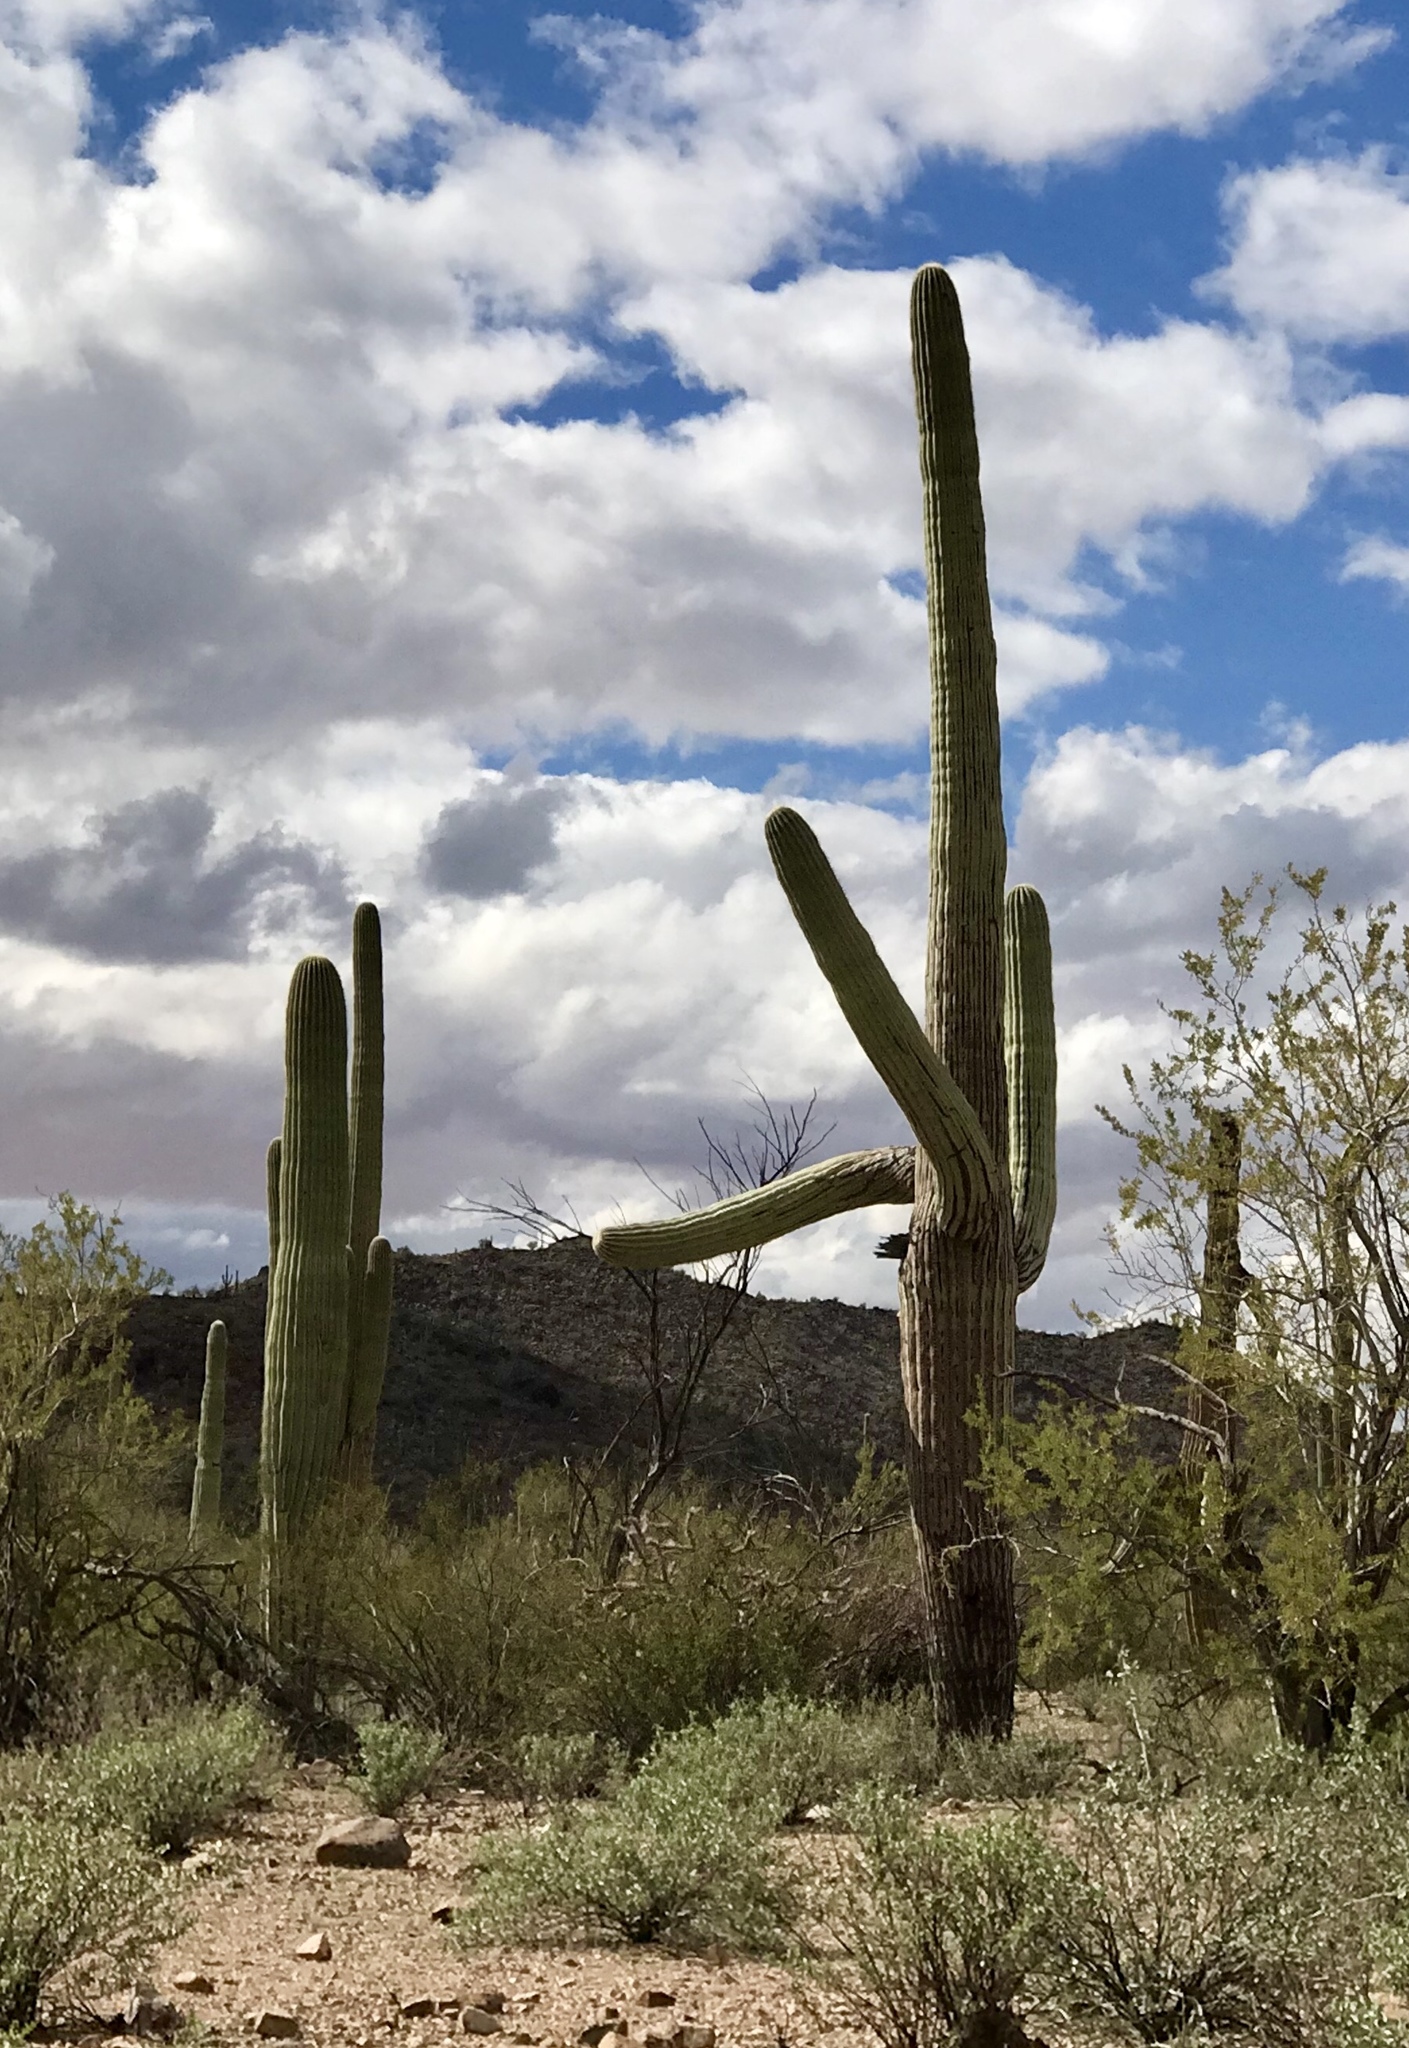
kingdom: Plantae
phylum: Tracheophyta
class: Magnoliopsida
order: Caryophyllales
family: Cactaceae
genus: Carnegiea
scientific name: Carnegiea gigantea
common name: Saguaro
